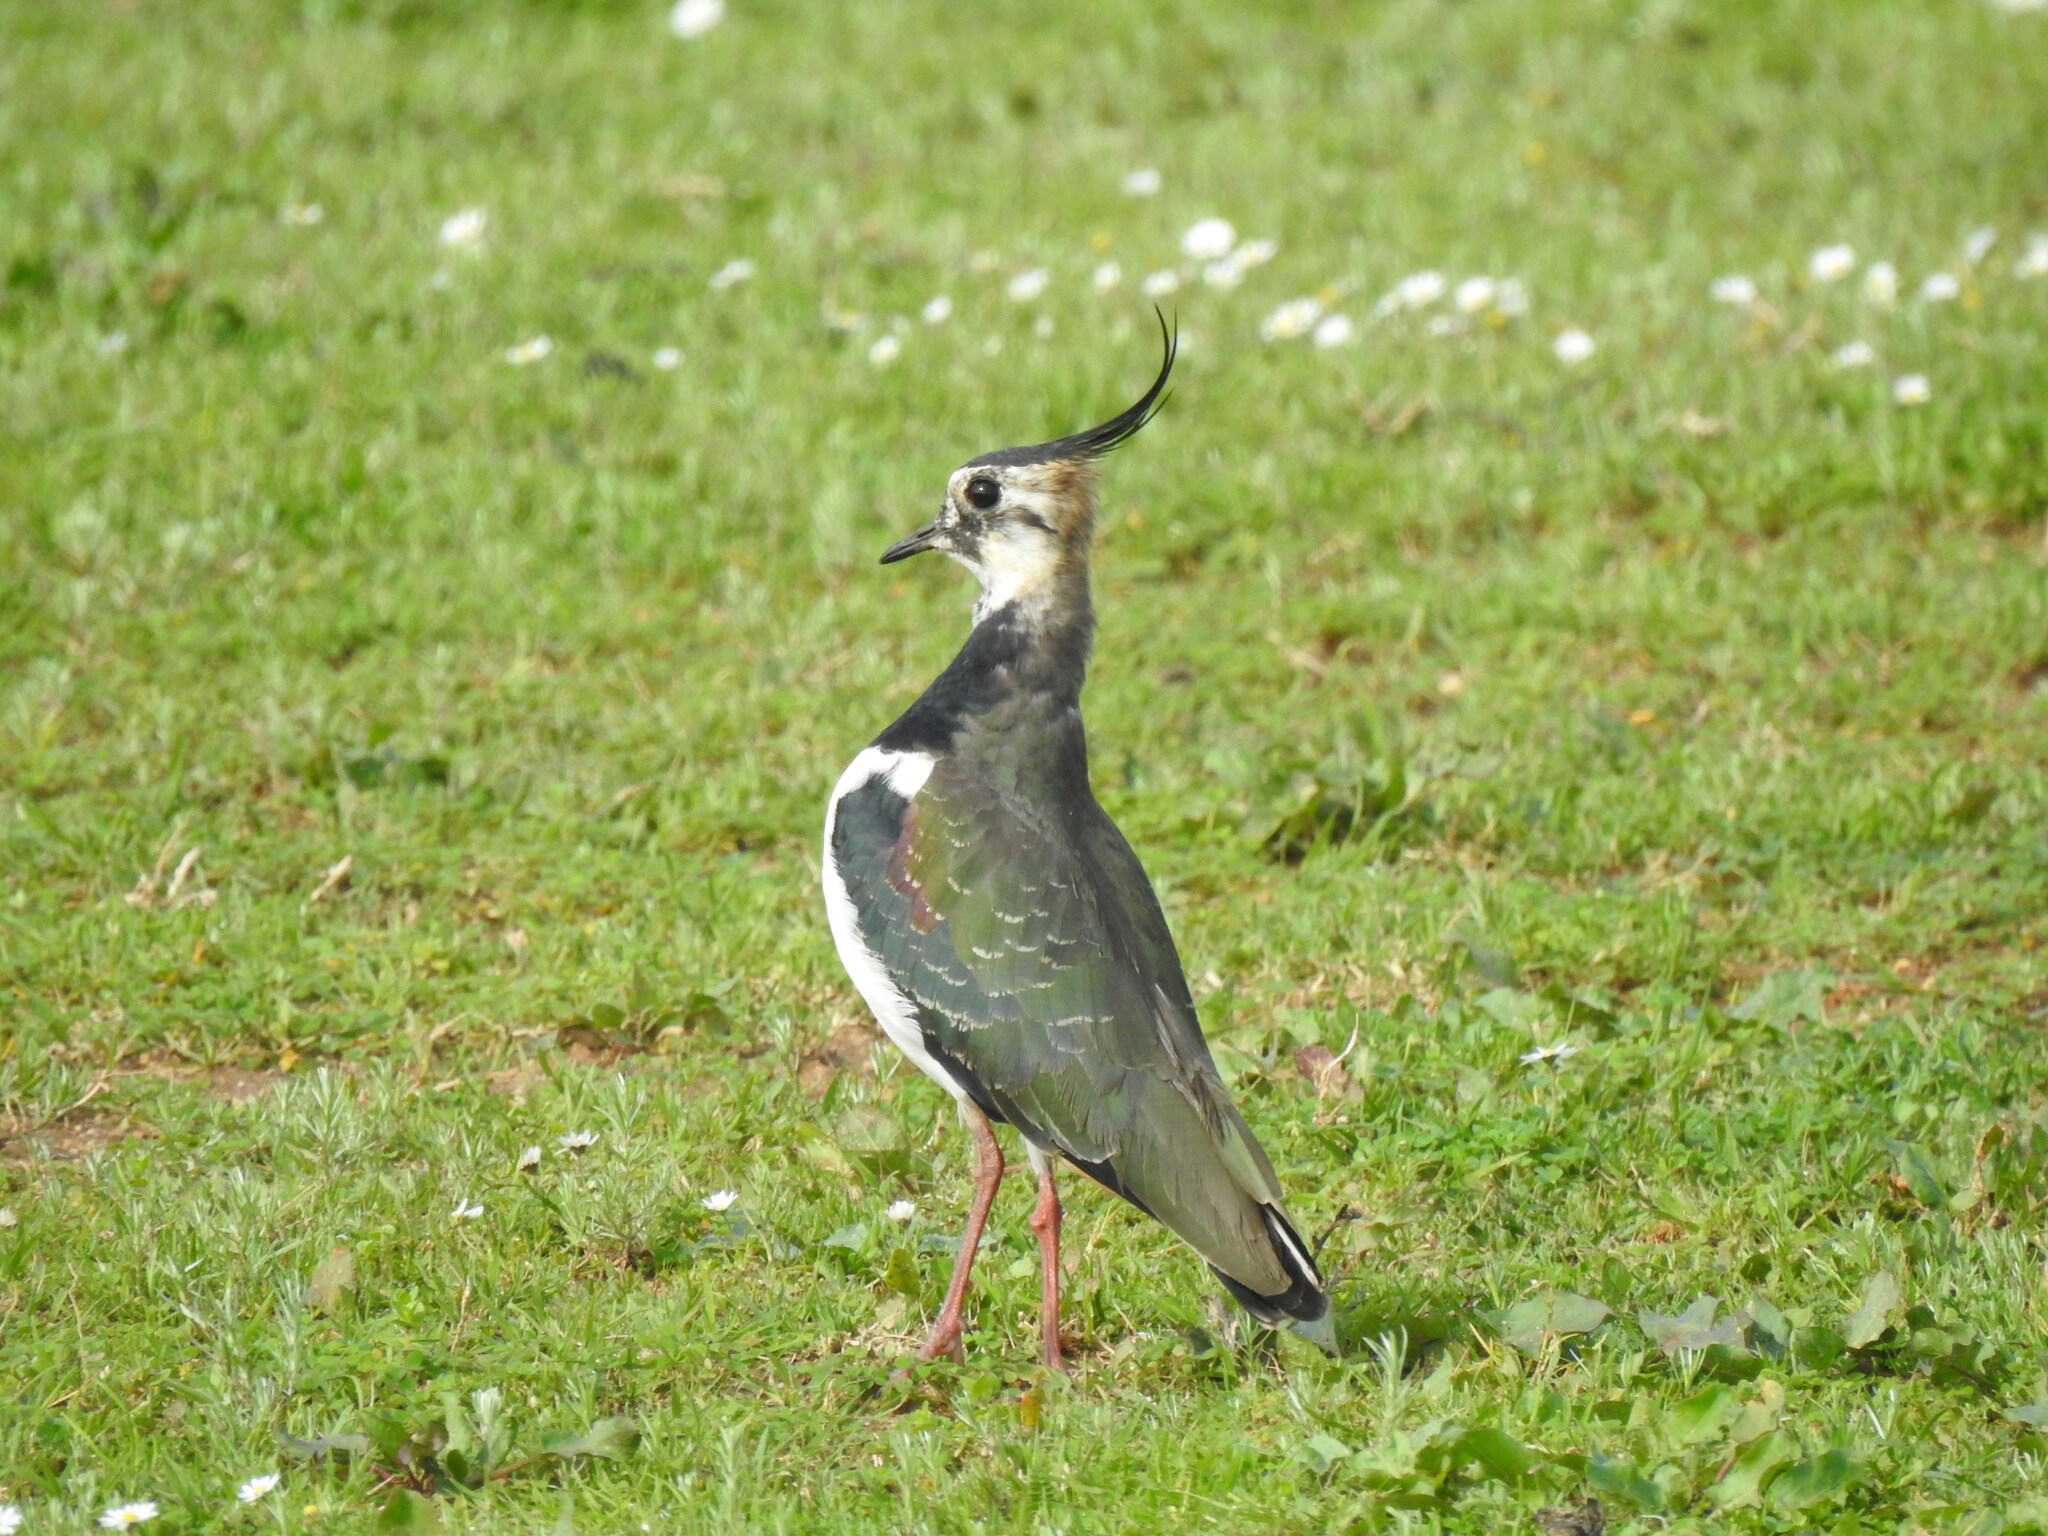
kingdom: Animalia
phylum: Chordata
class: Aves
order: Charadriiformes
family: Charadriidae
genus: Vanellus
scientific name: Vanellus vanellus
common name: Northern lapwing
